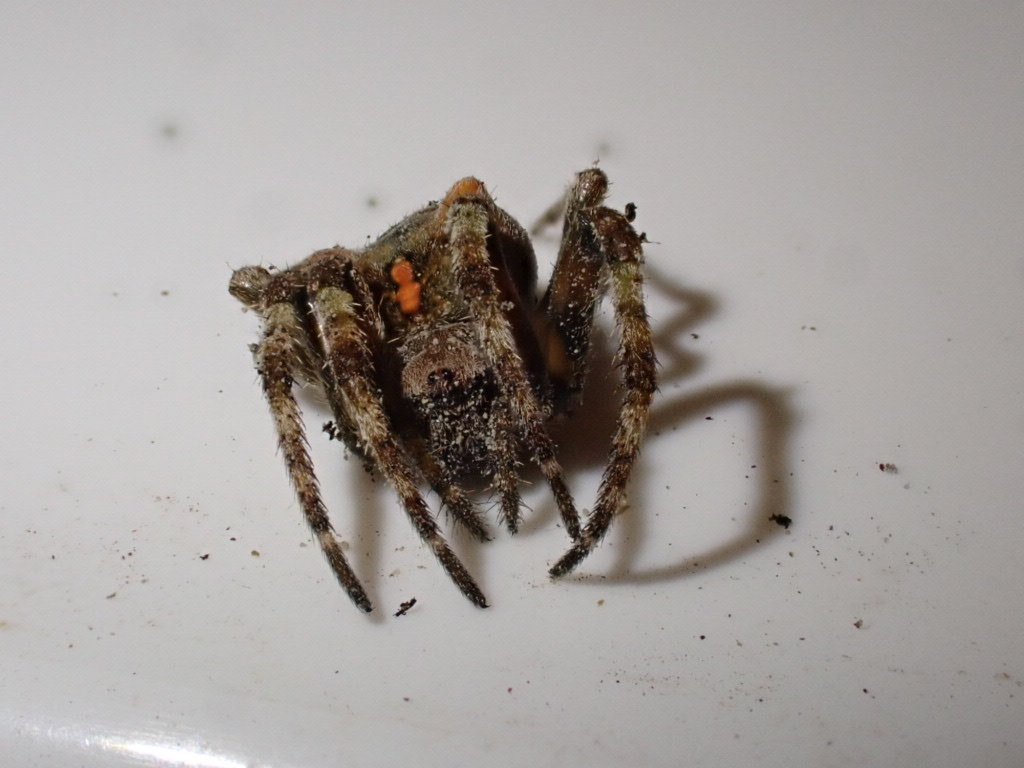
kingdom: Animalia
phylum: Arthropoda
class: Arachnida
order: Araneae
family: Araneidae
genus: Courtaraneus
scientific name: Courtaraneus orientalis
